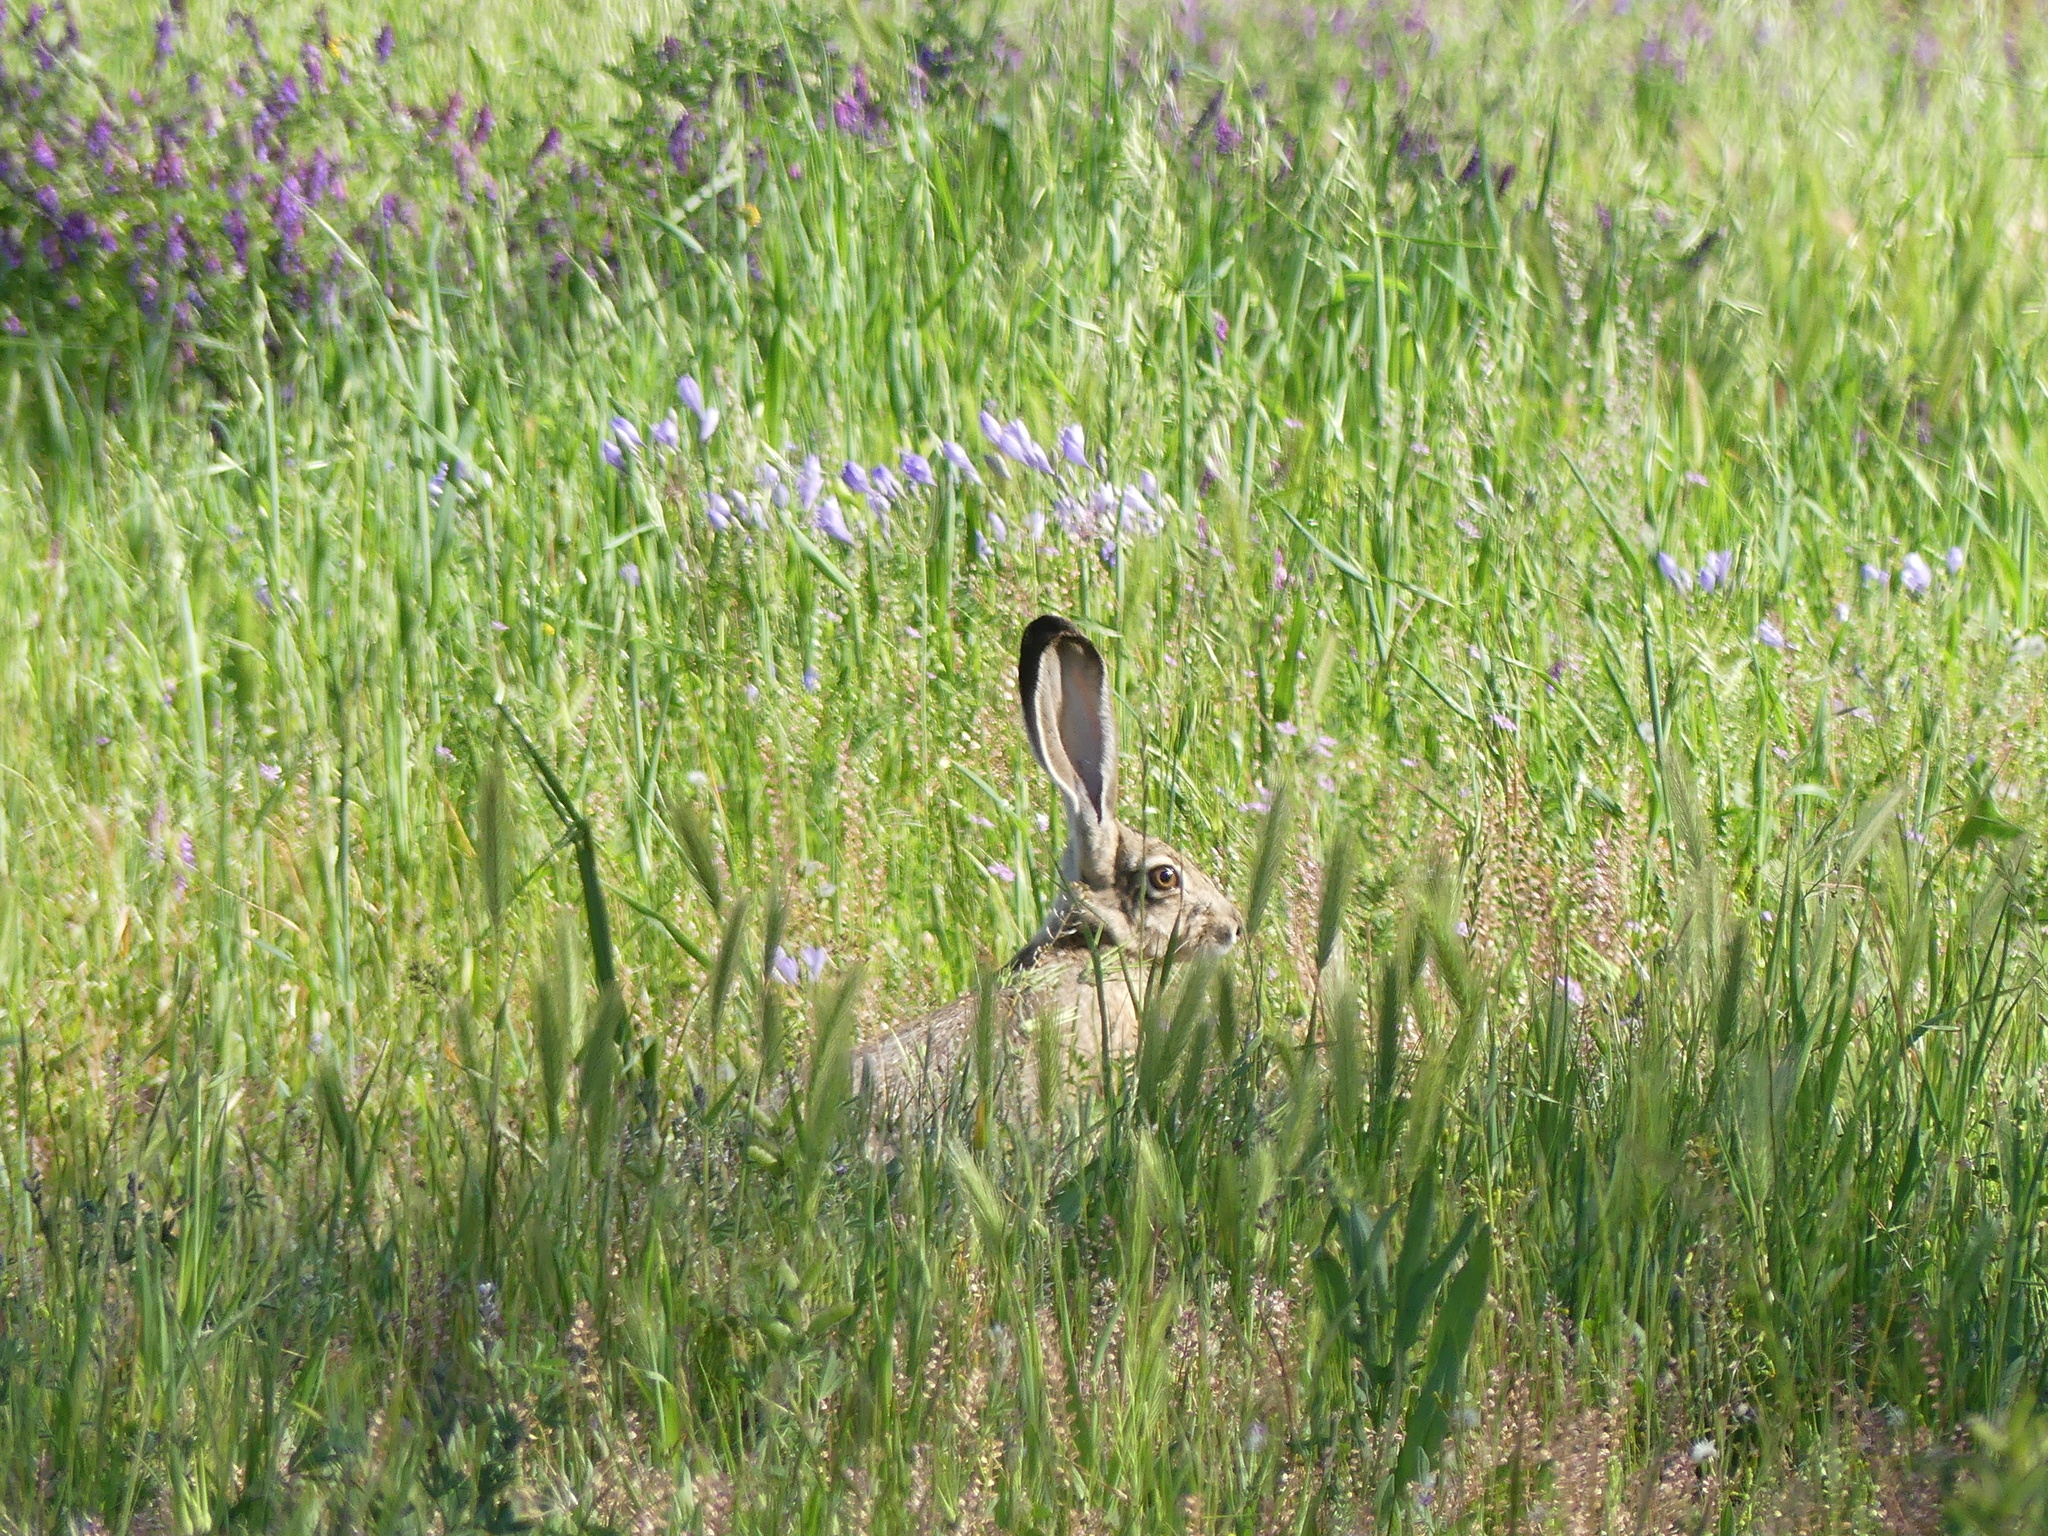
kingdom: Animalia
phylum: Chordata
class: Mammalia
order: Lagomorpha
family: Leporidae
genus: Lepus
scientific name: Lepus californicus
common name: Black-tailed jackrabbit
